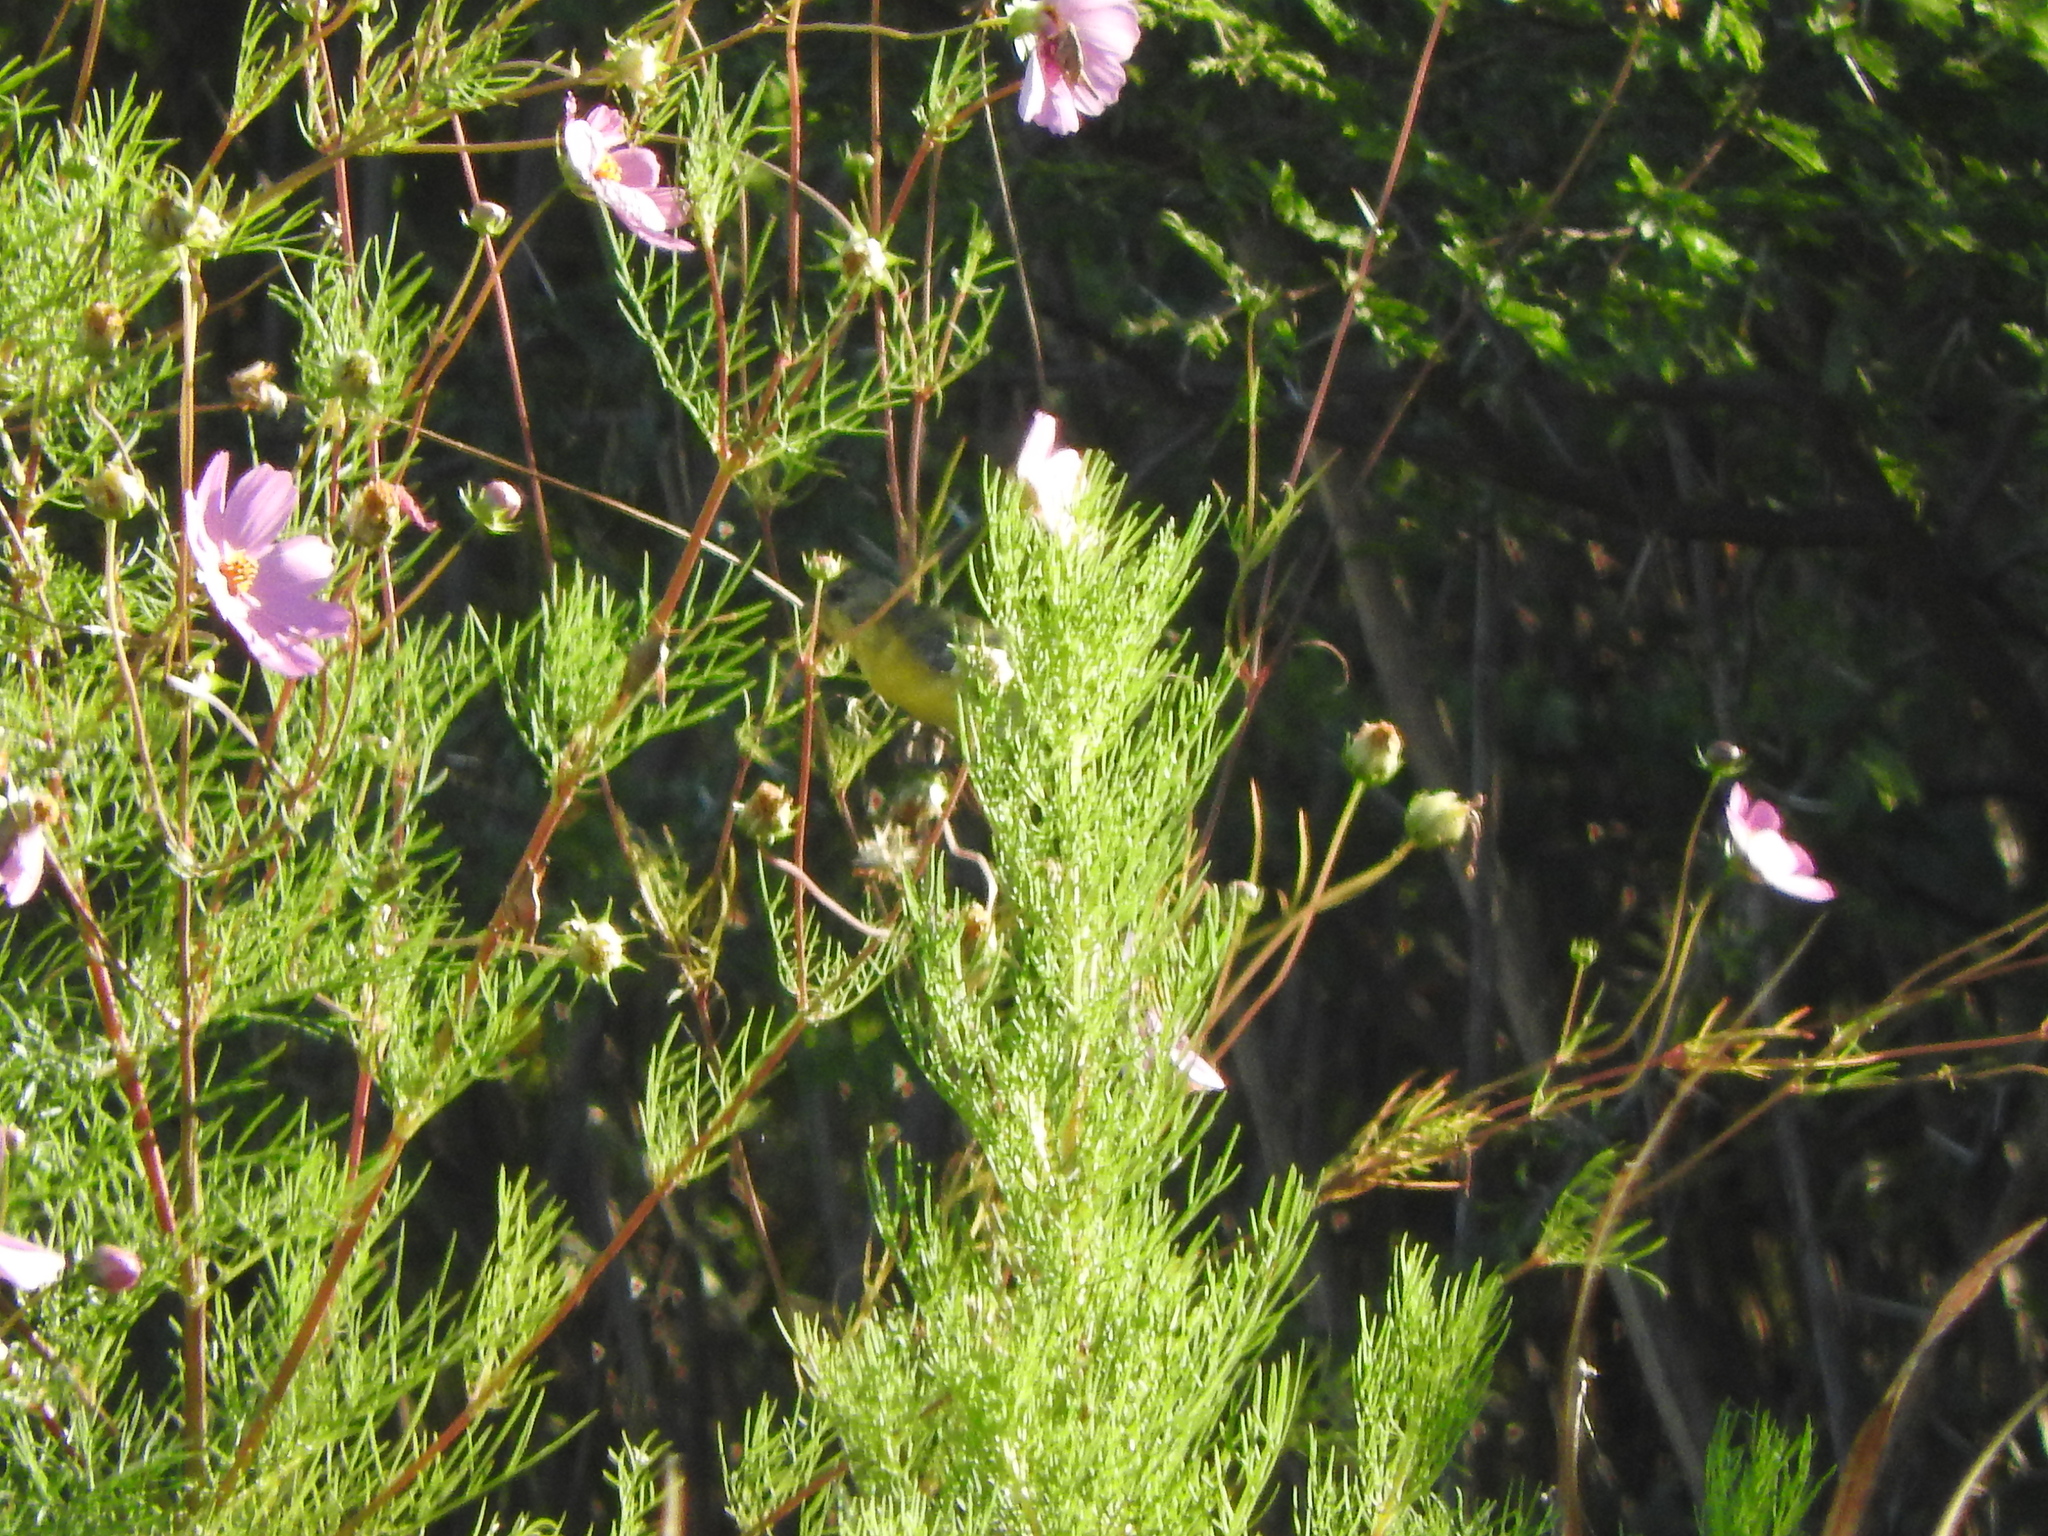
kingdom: Animalia
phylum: Chordata
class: Aves
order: Passeriformes
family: Fringillidae
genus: Spinus
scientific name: Spinus psaltria
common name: Lesser goldfinch
